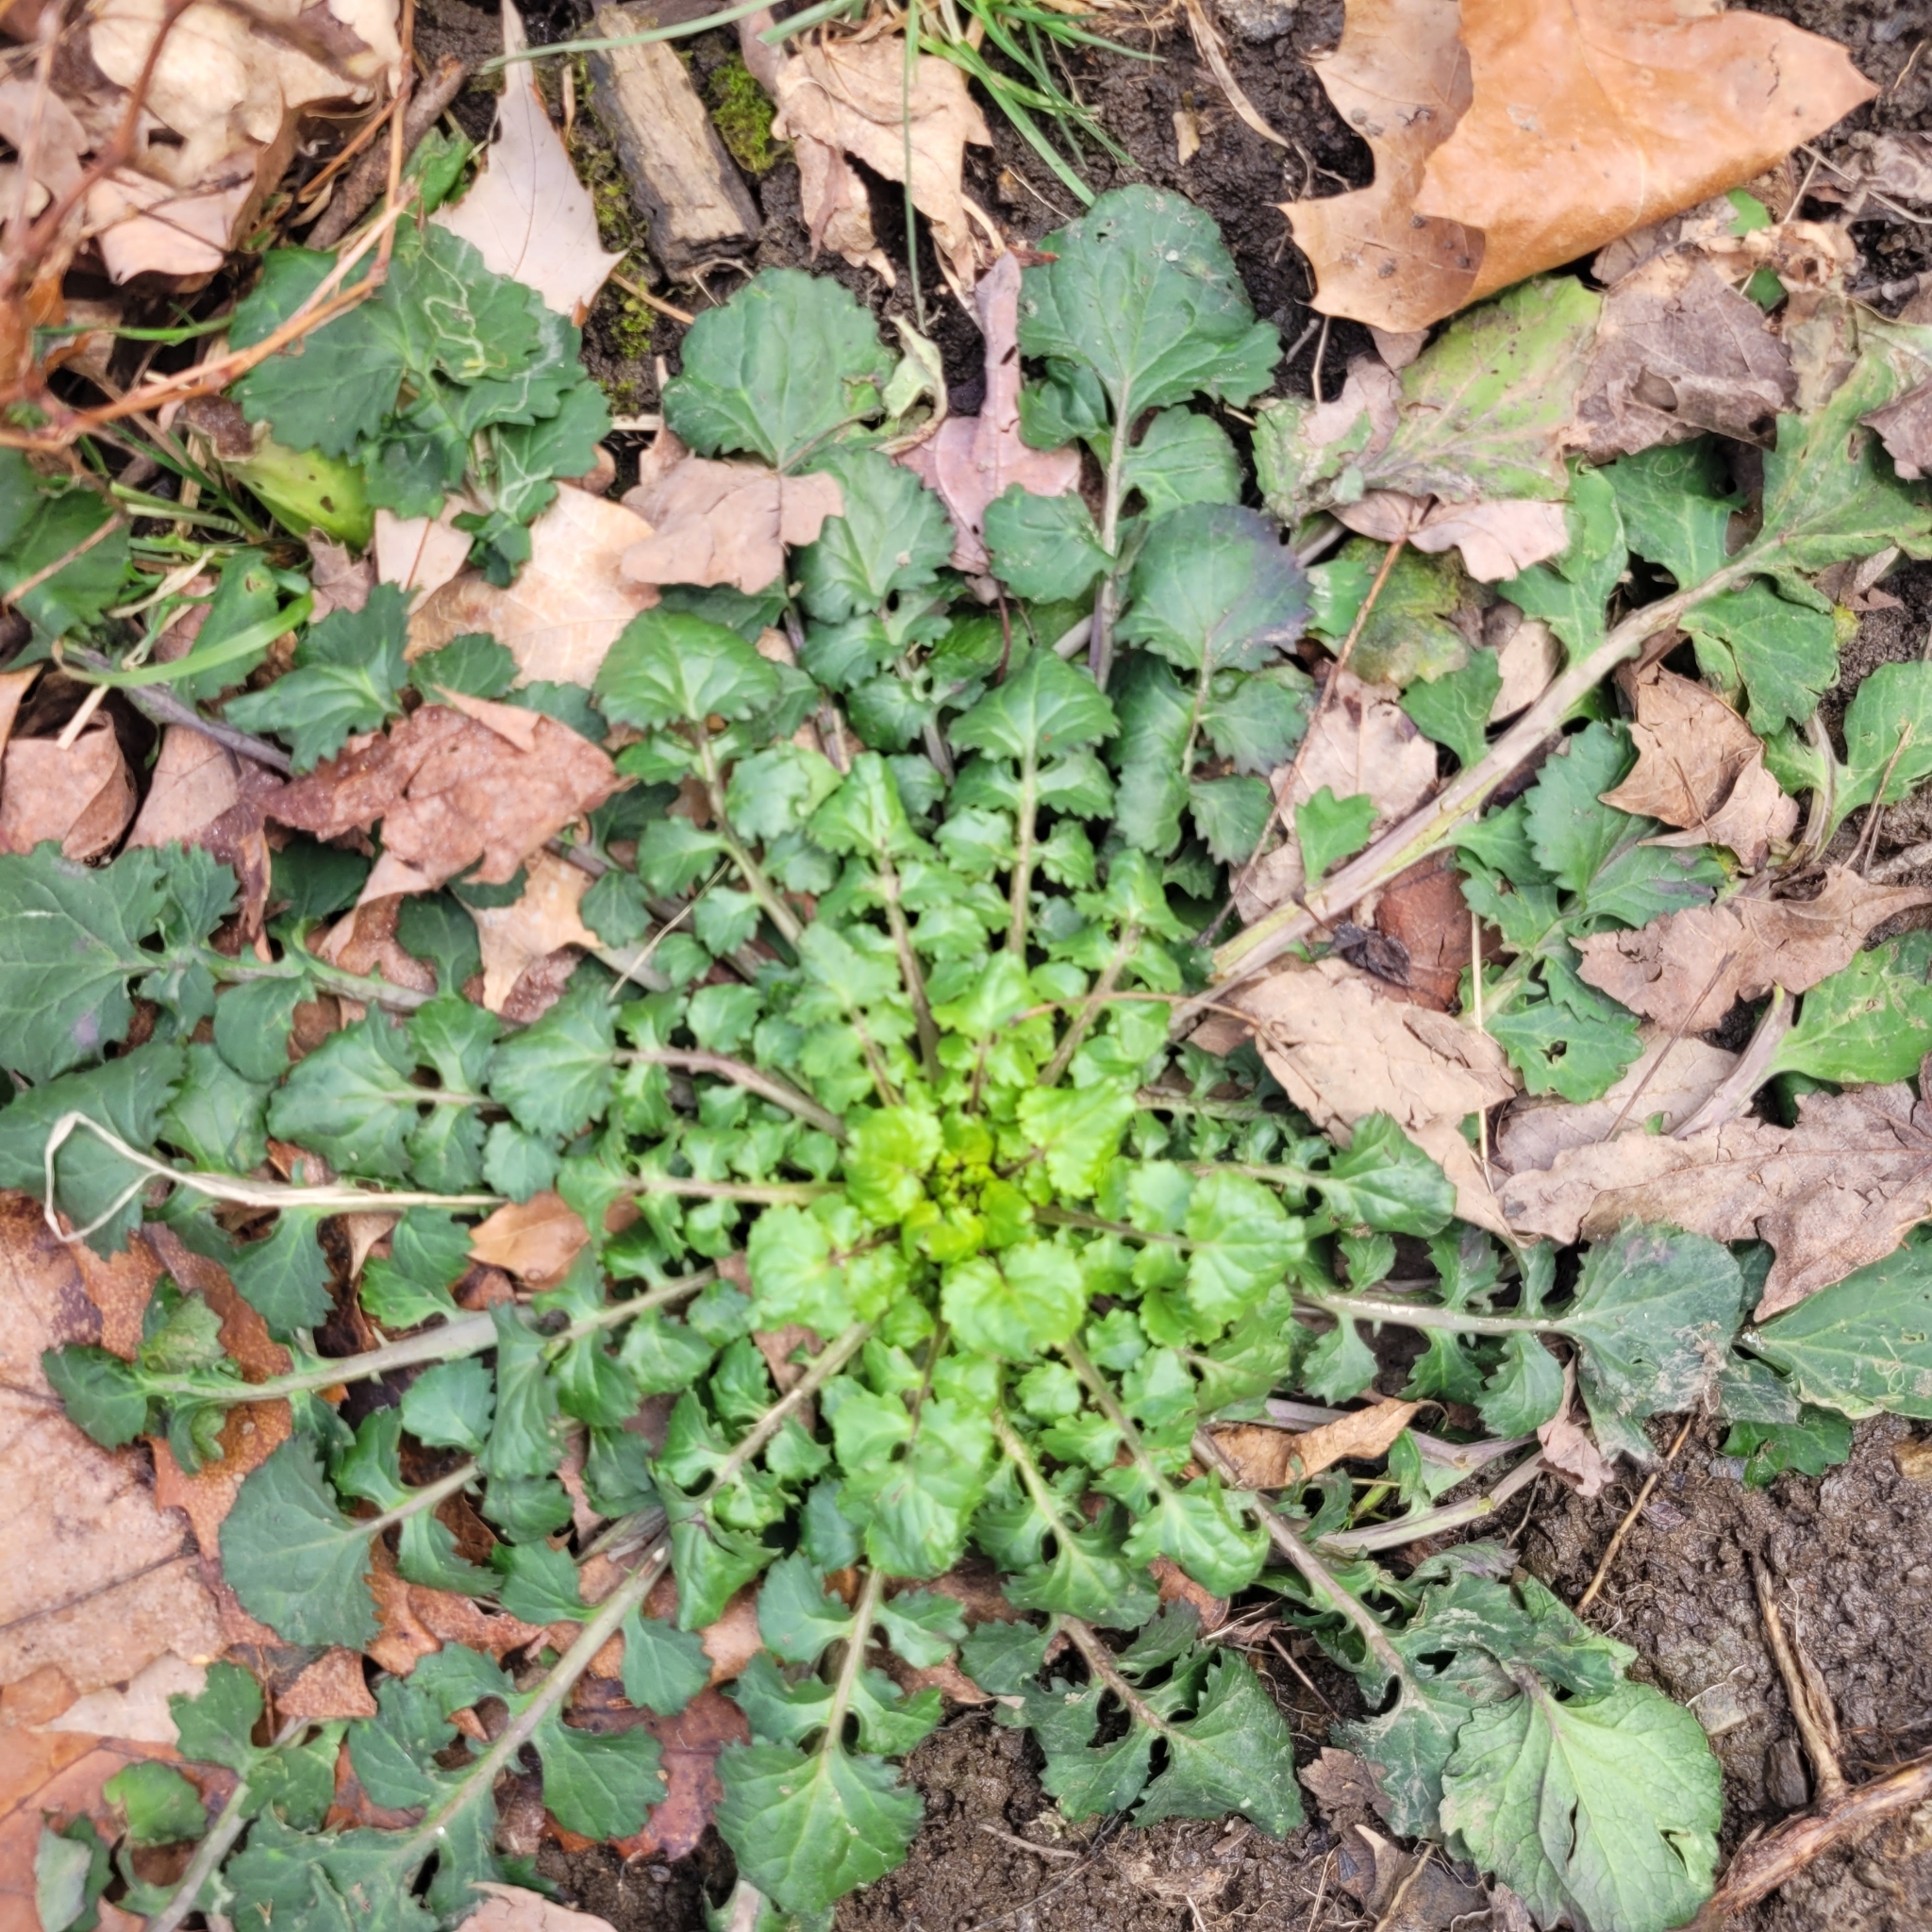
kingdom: Plantae
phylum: Tracheophyta
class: Magnoliopsida
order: Asterales
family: Asteraceae
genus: Packera
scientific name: Packera glabella
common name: Butterweed
